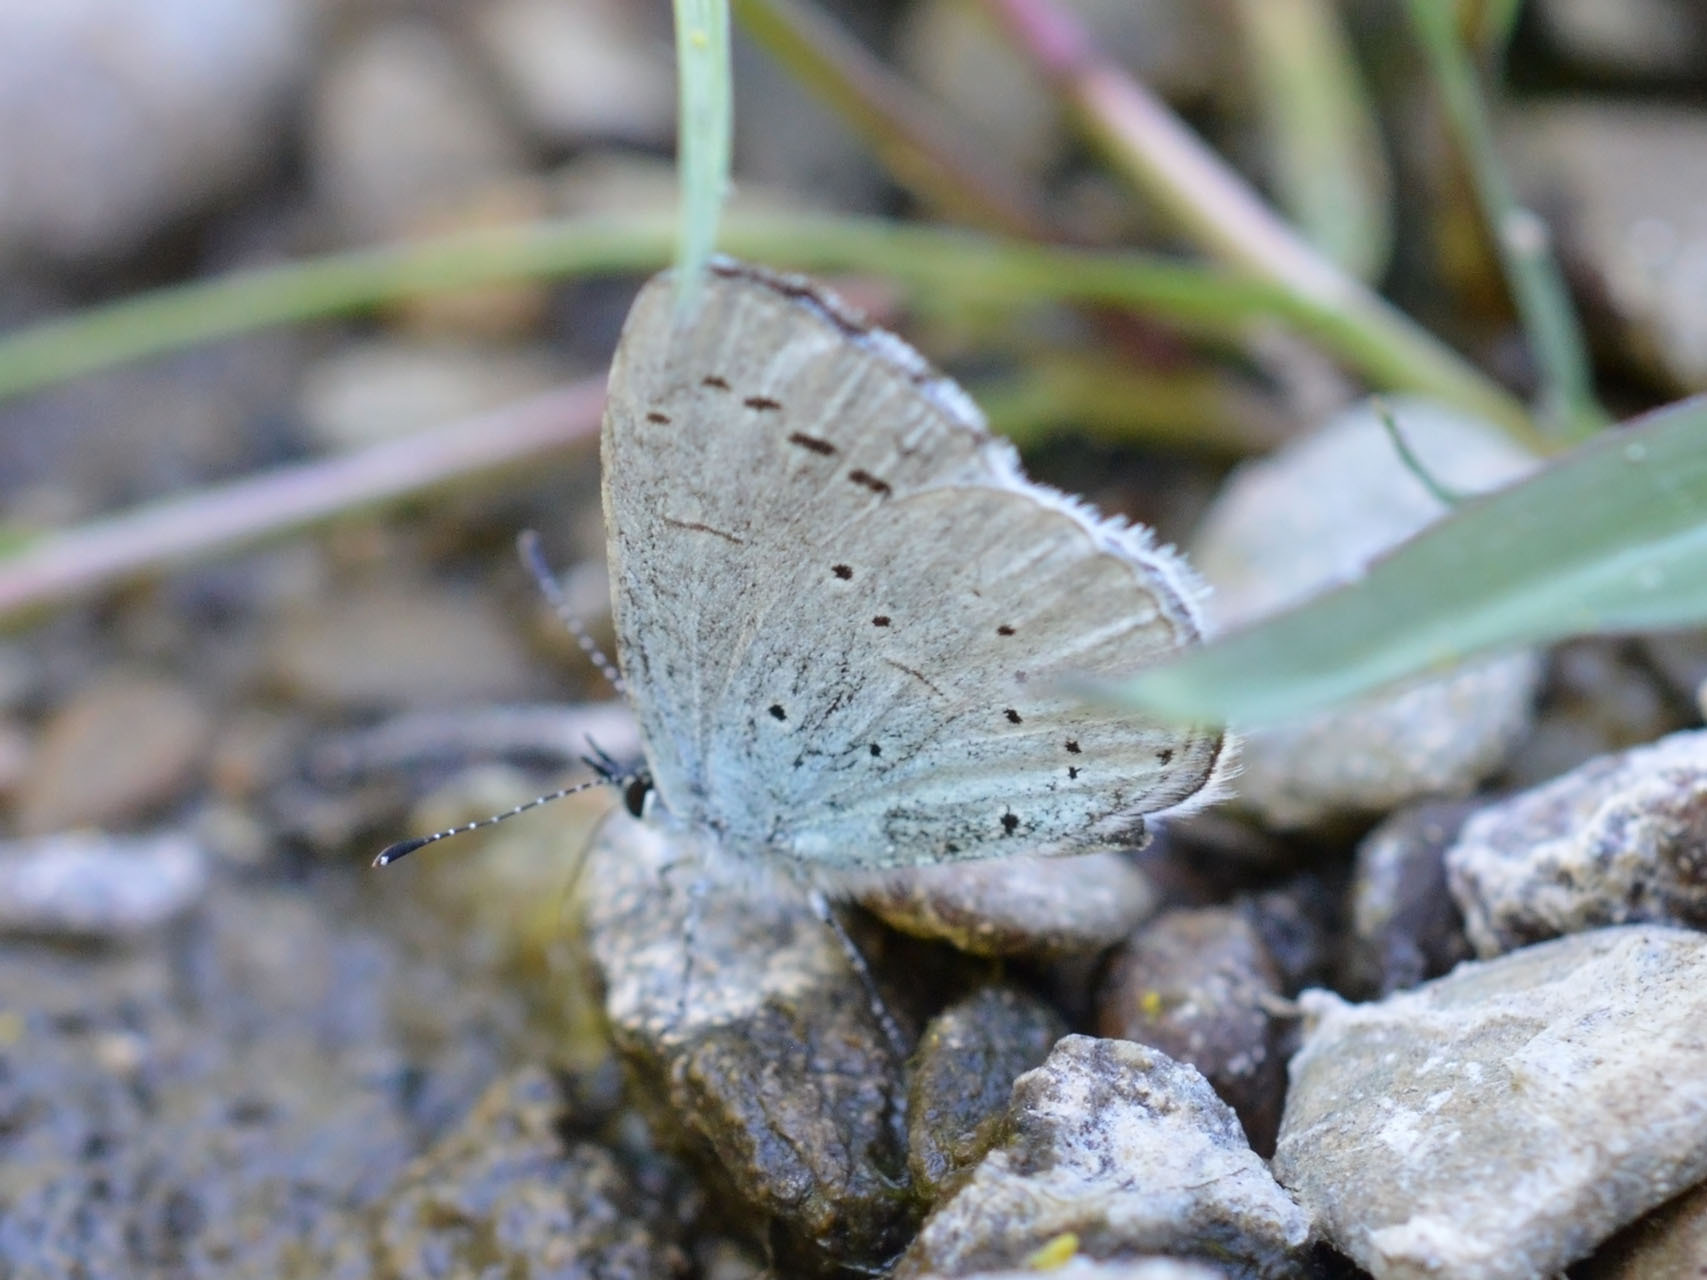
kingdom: Animalia
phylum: Arthropoda
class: Insecta
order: Lepidoptera
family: Lycaenidae
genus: Celastrina
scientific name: Celastrina argiolus
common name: Holly blue
